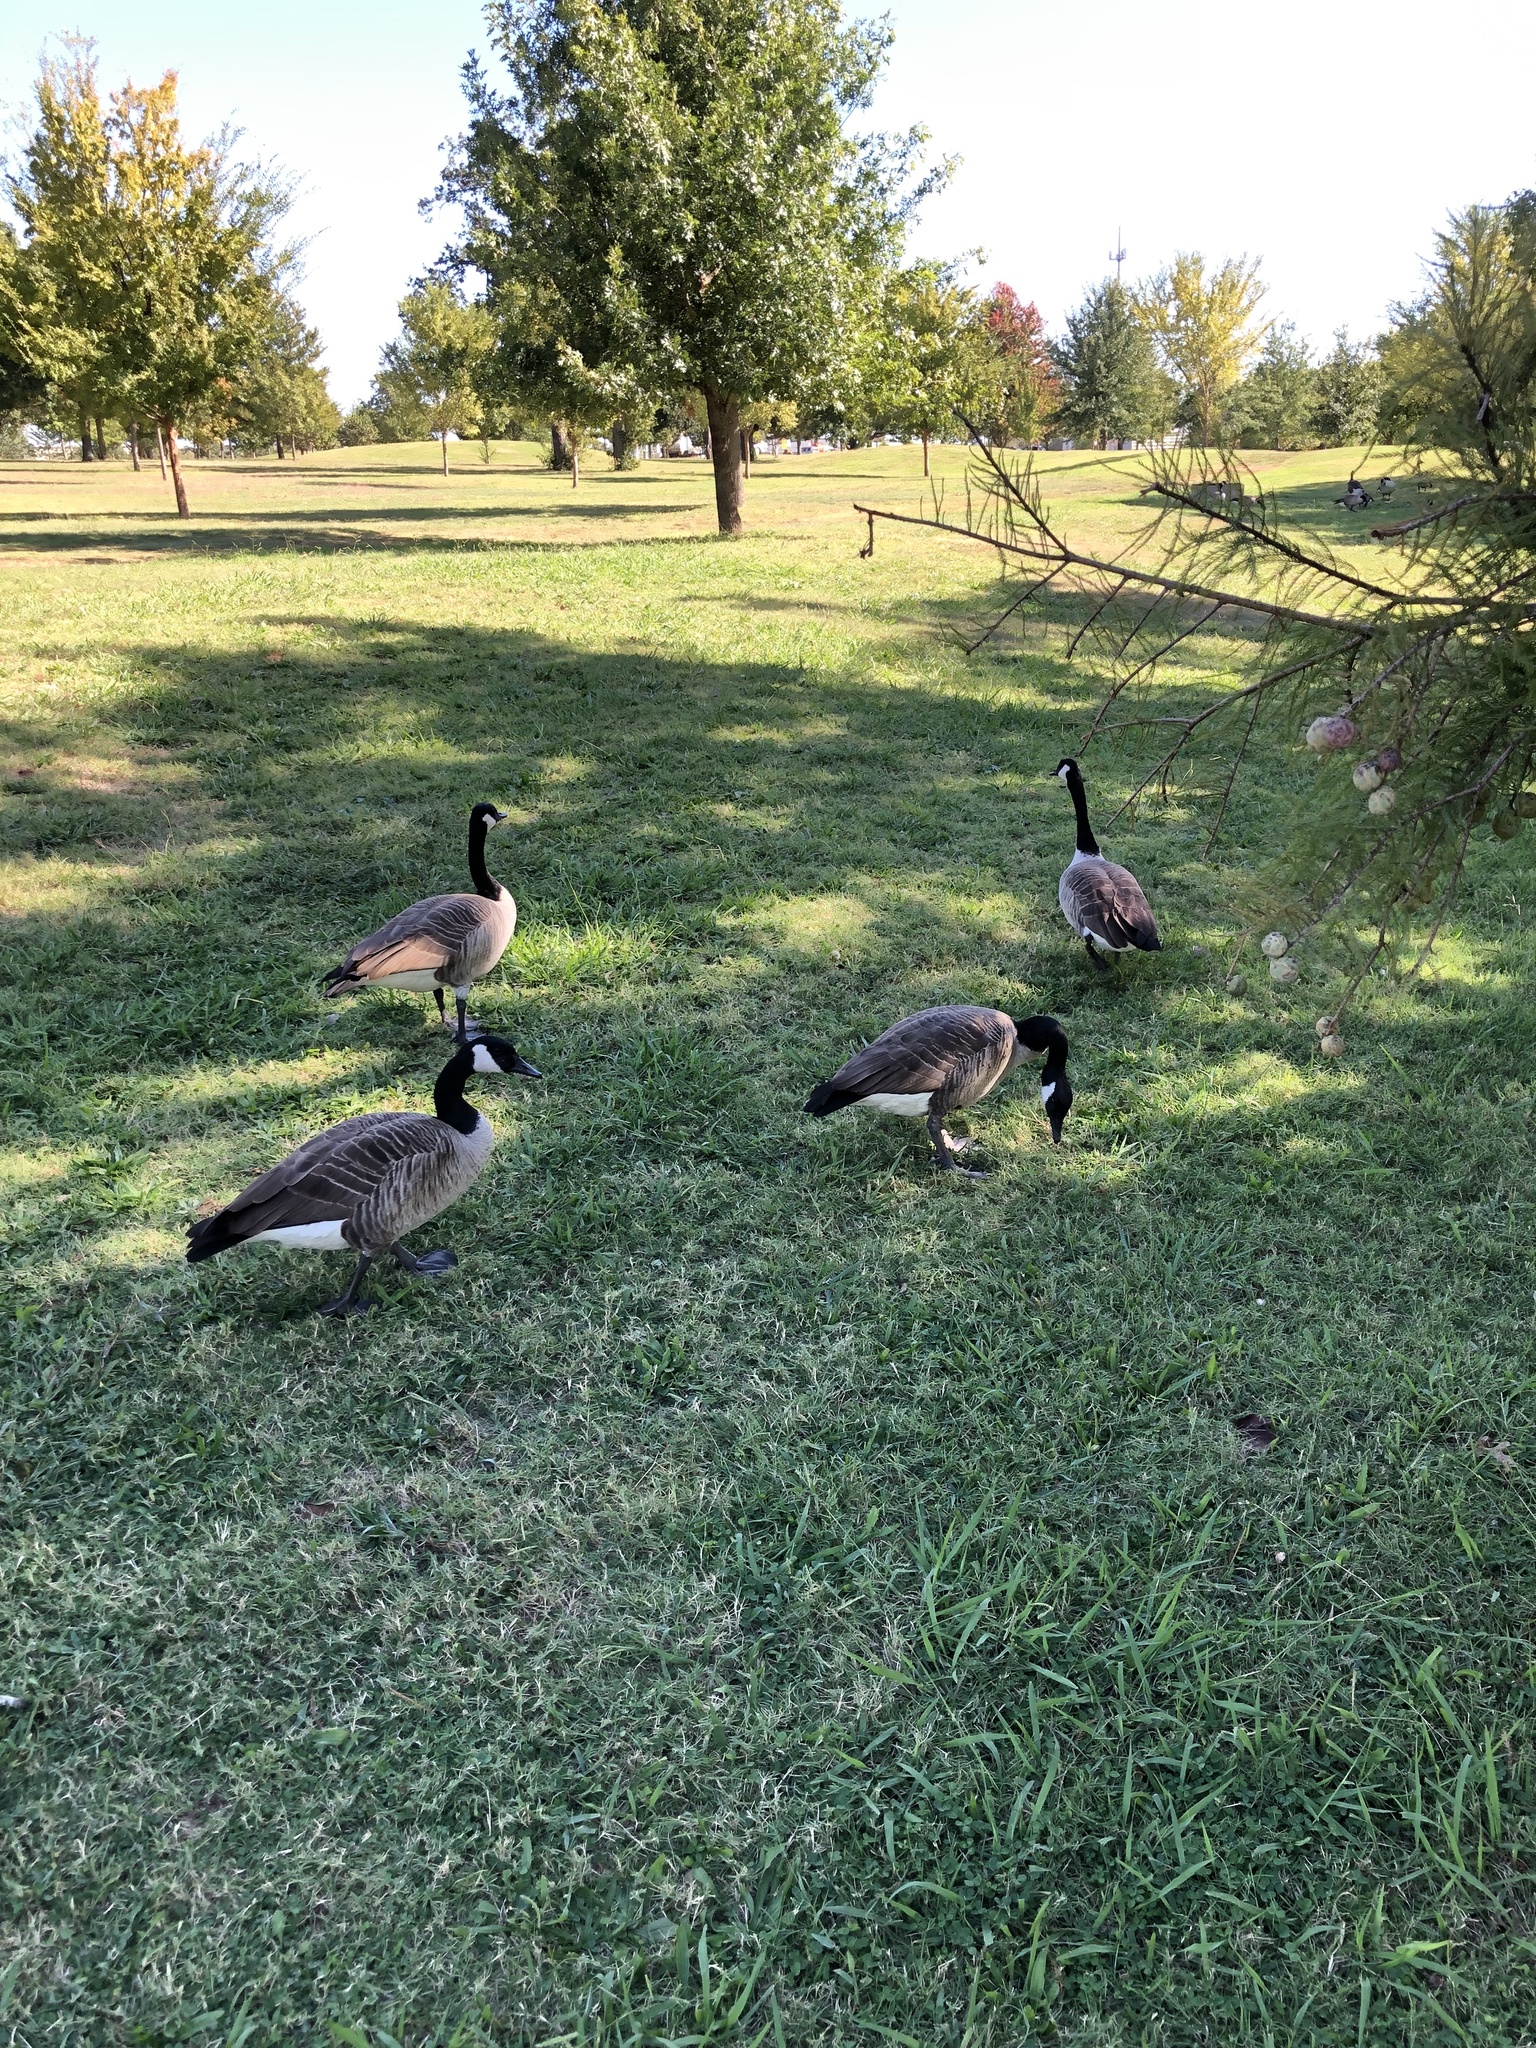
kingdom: Animalia
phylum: Chordata
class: Aves
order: Anseriformes
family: Anatidae
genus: Branta
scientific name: Branta canadensis
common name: Canada goose
